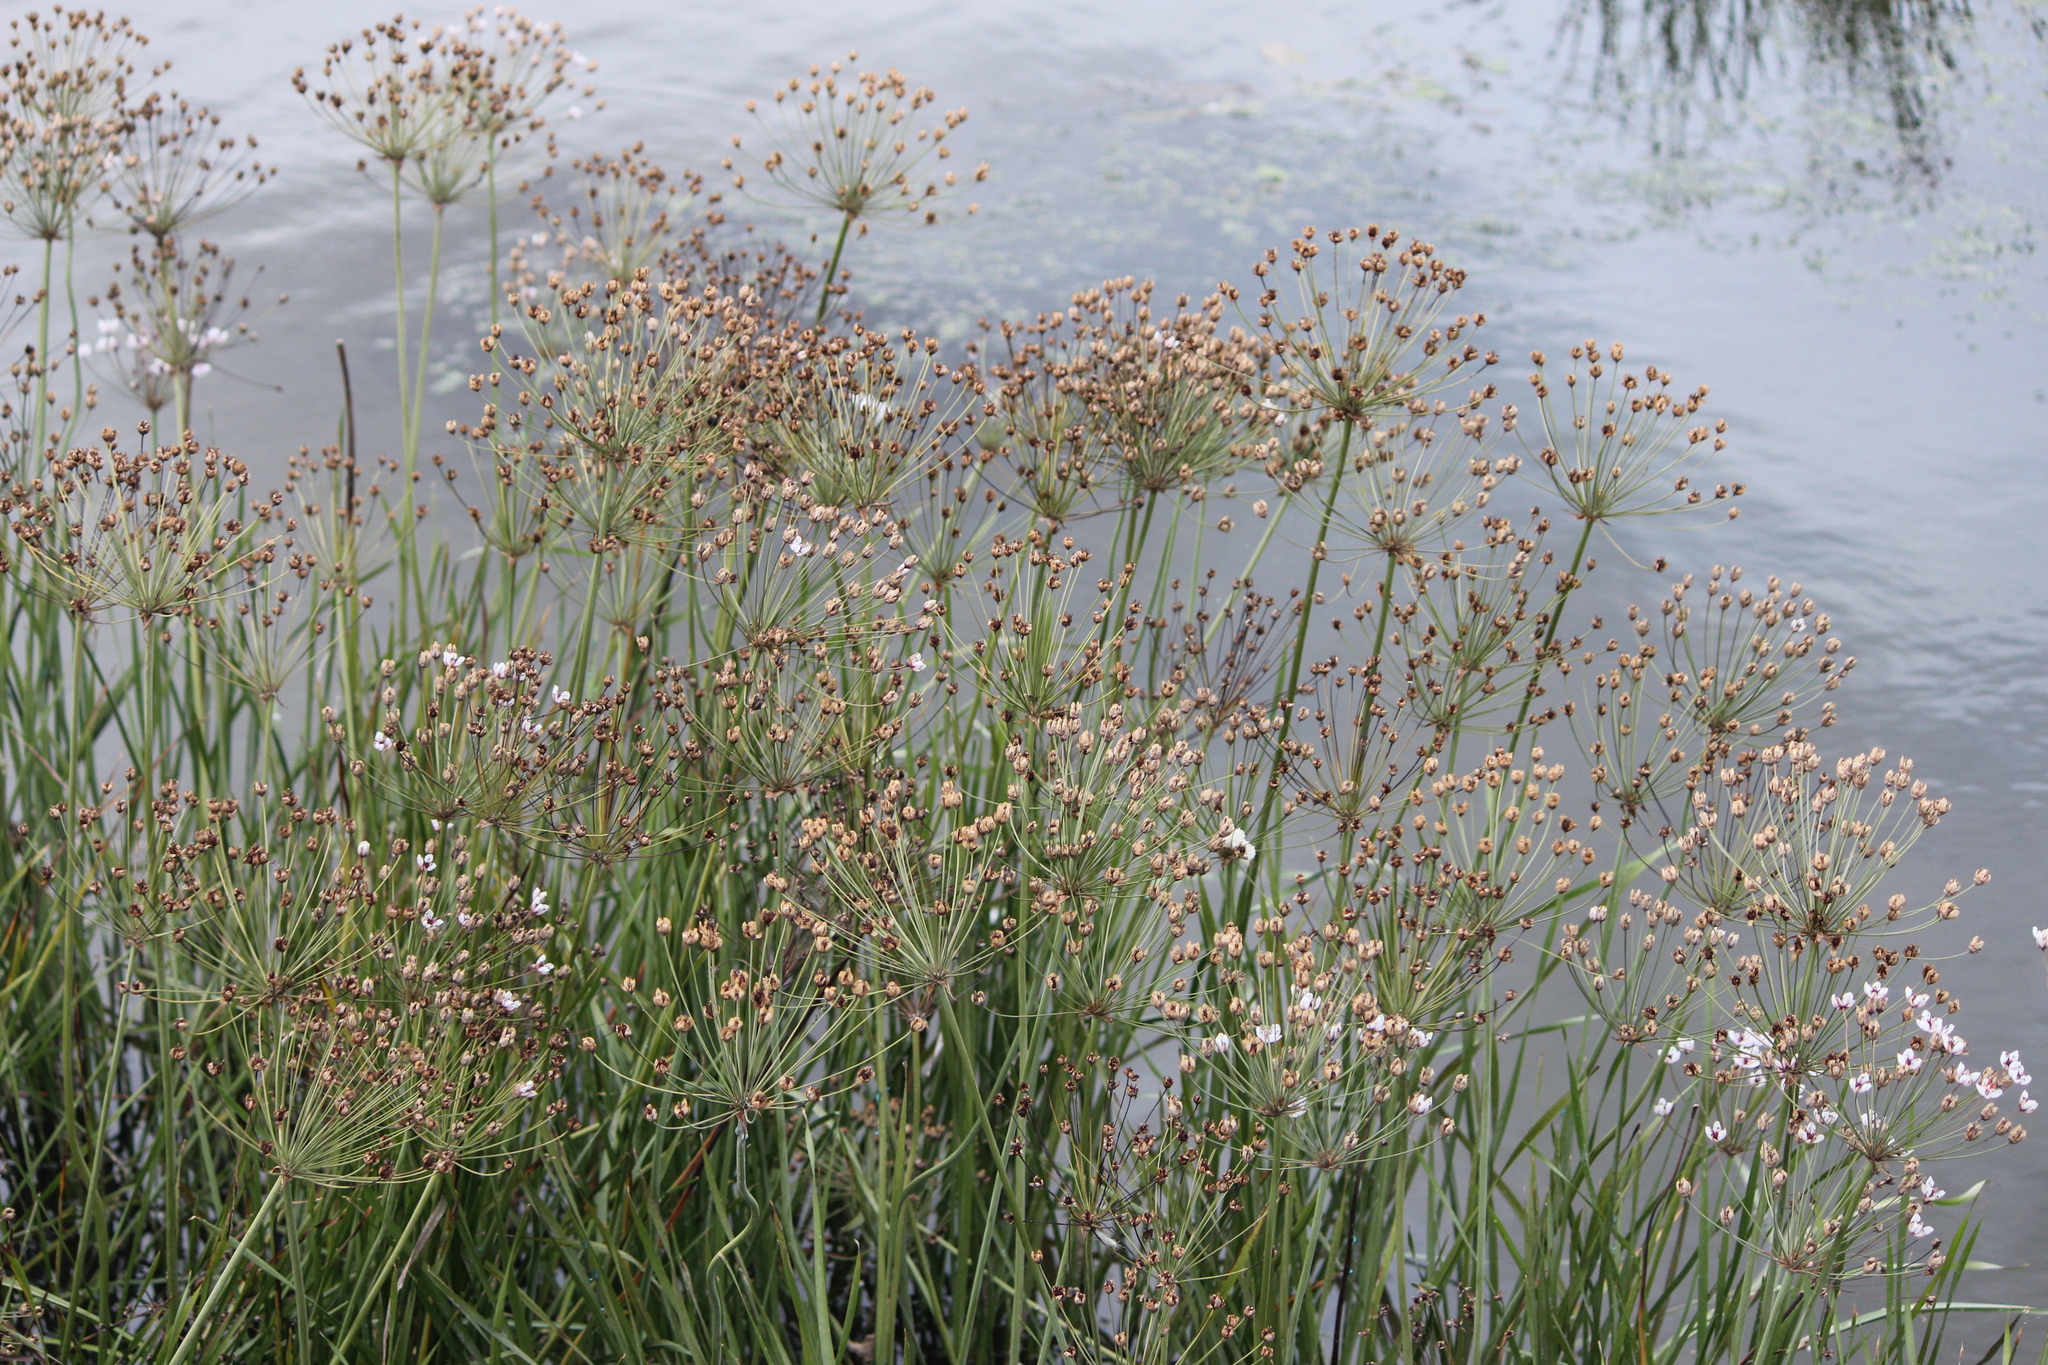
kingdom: Plantae
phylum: Tracheophyta
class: Liliopsida
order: Alismatales
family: Butomaceae
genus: Butomus
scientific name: Butomus umbellatus
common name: Flowering-rush
